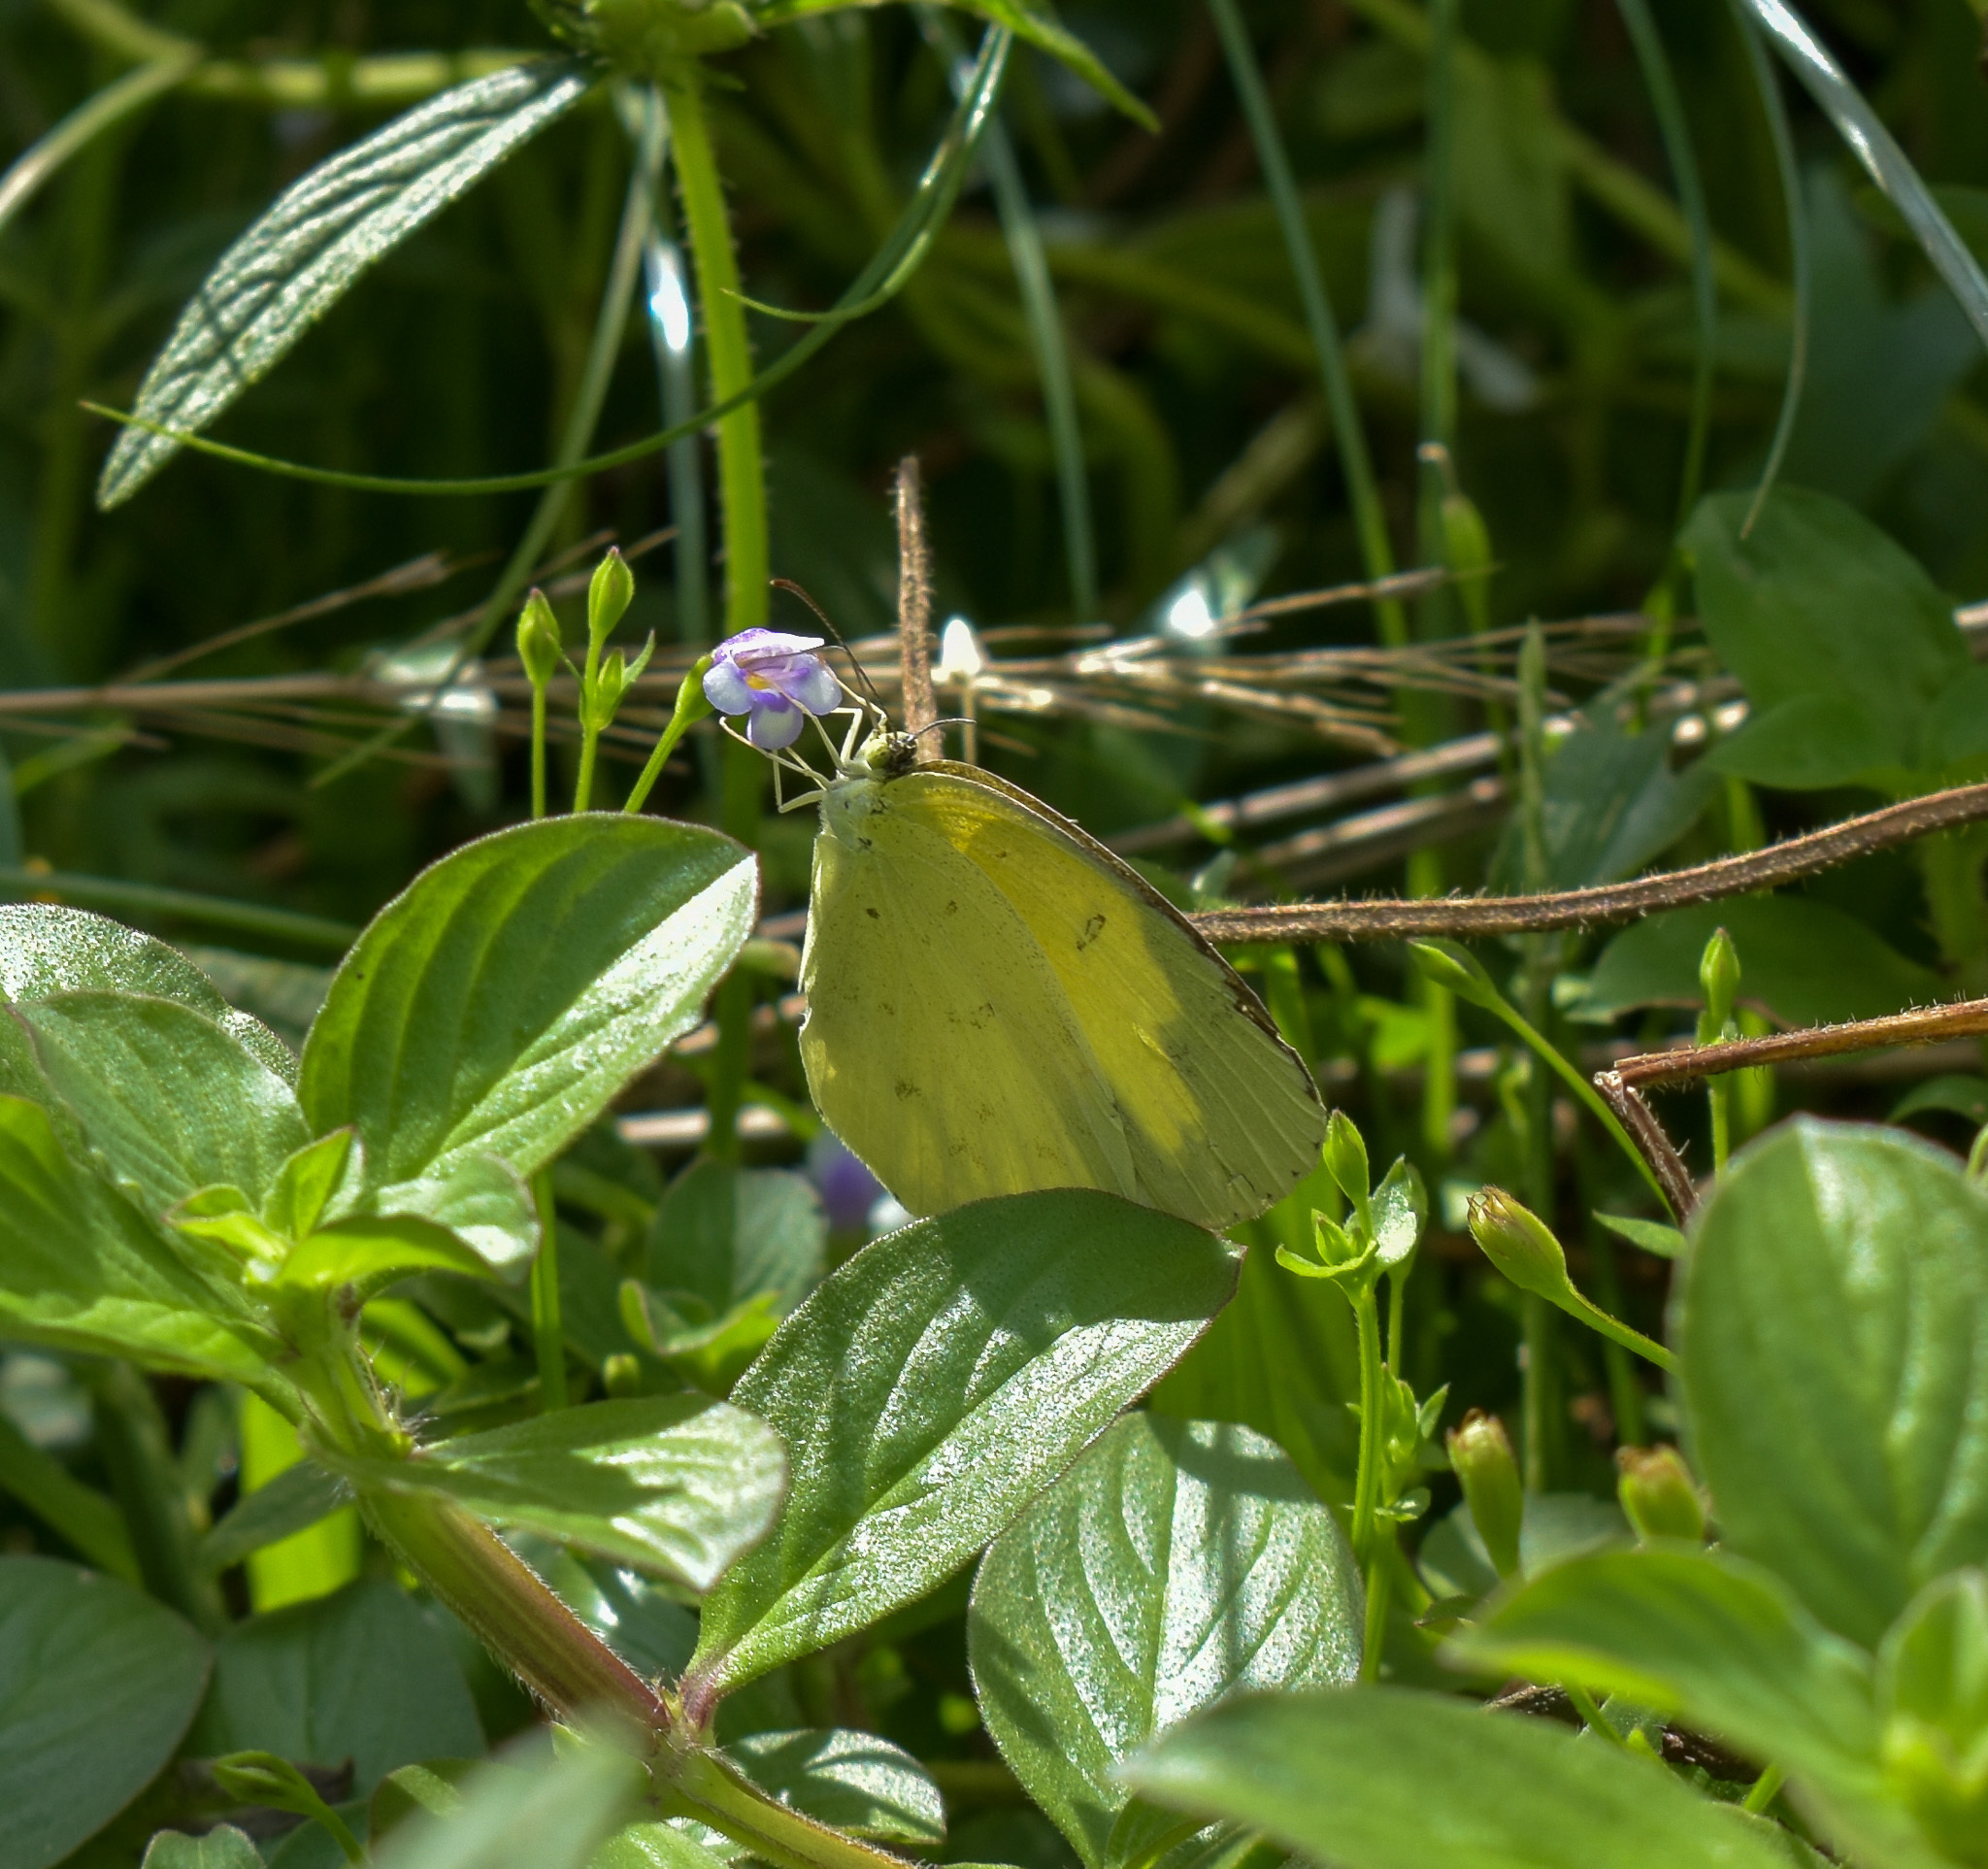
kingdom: Animalia
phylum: Arthropoda
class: Insecta
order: Lepidoptera
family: Pieridae
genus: Eurema
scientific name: Eurema hecabe
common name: Pale grass yellow
